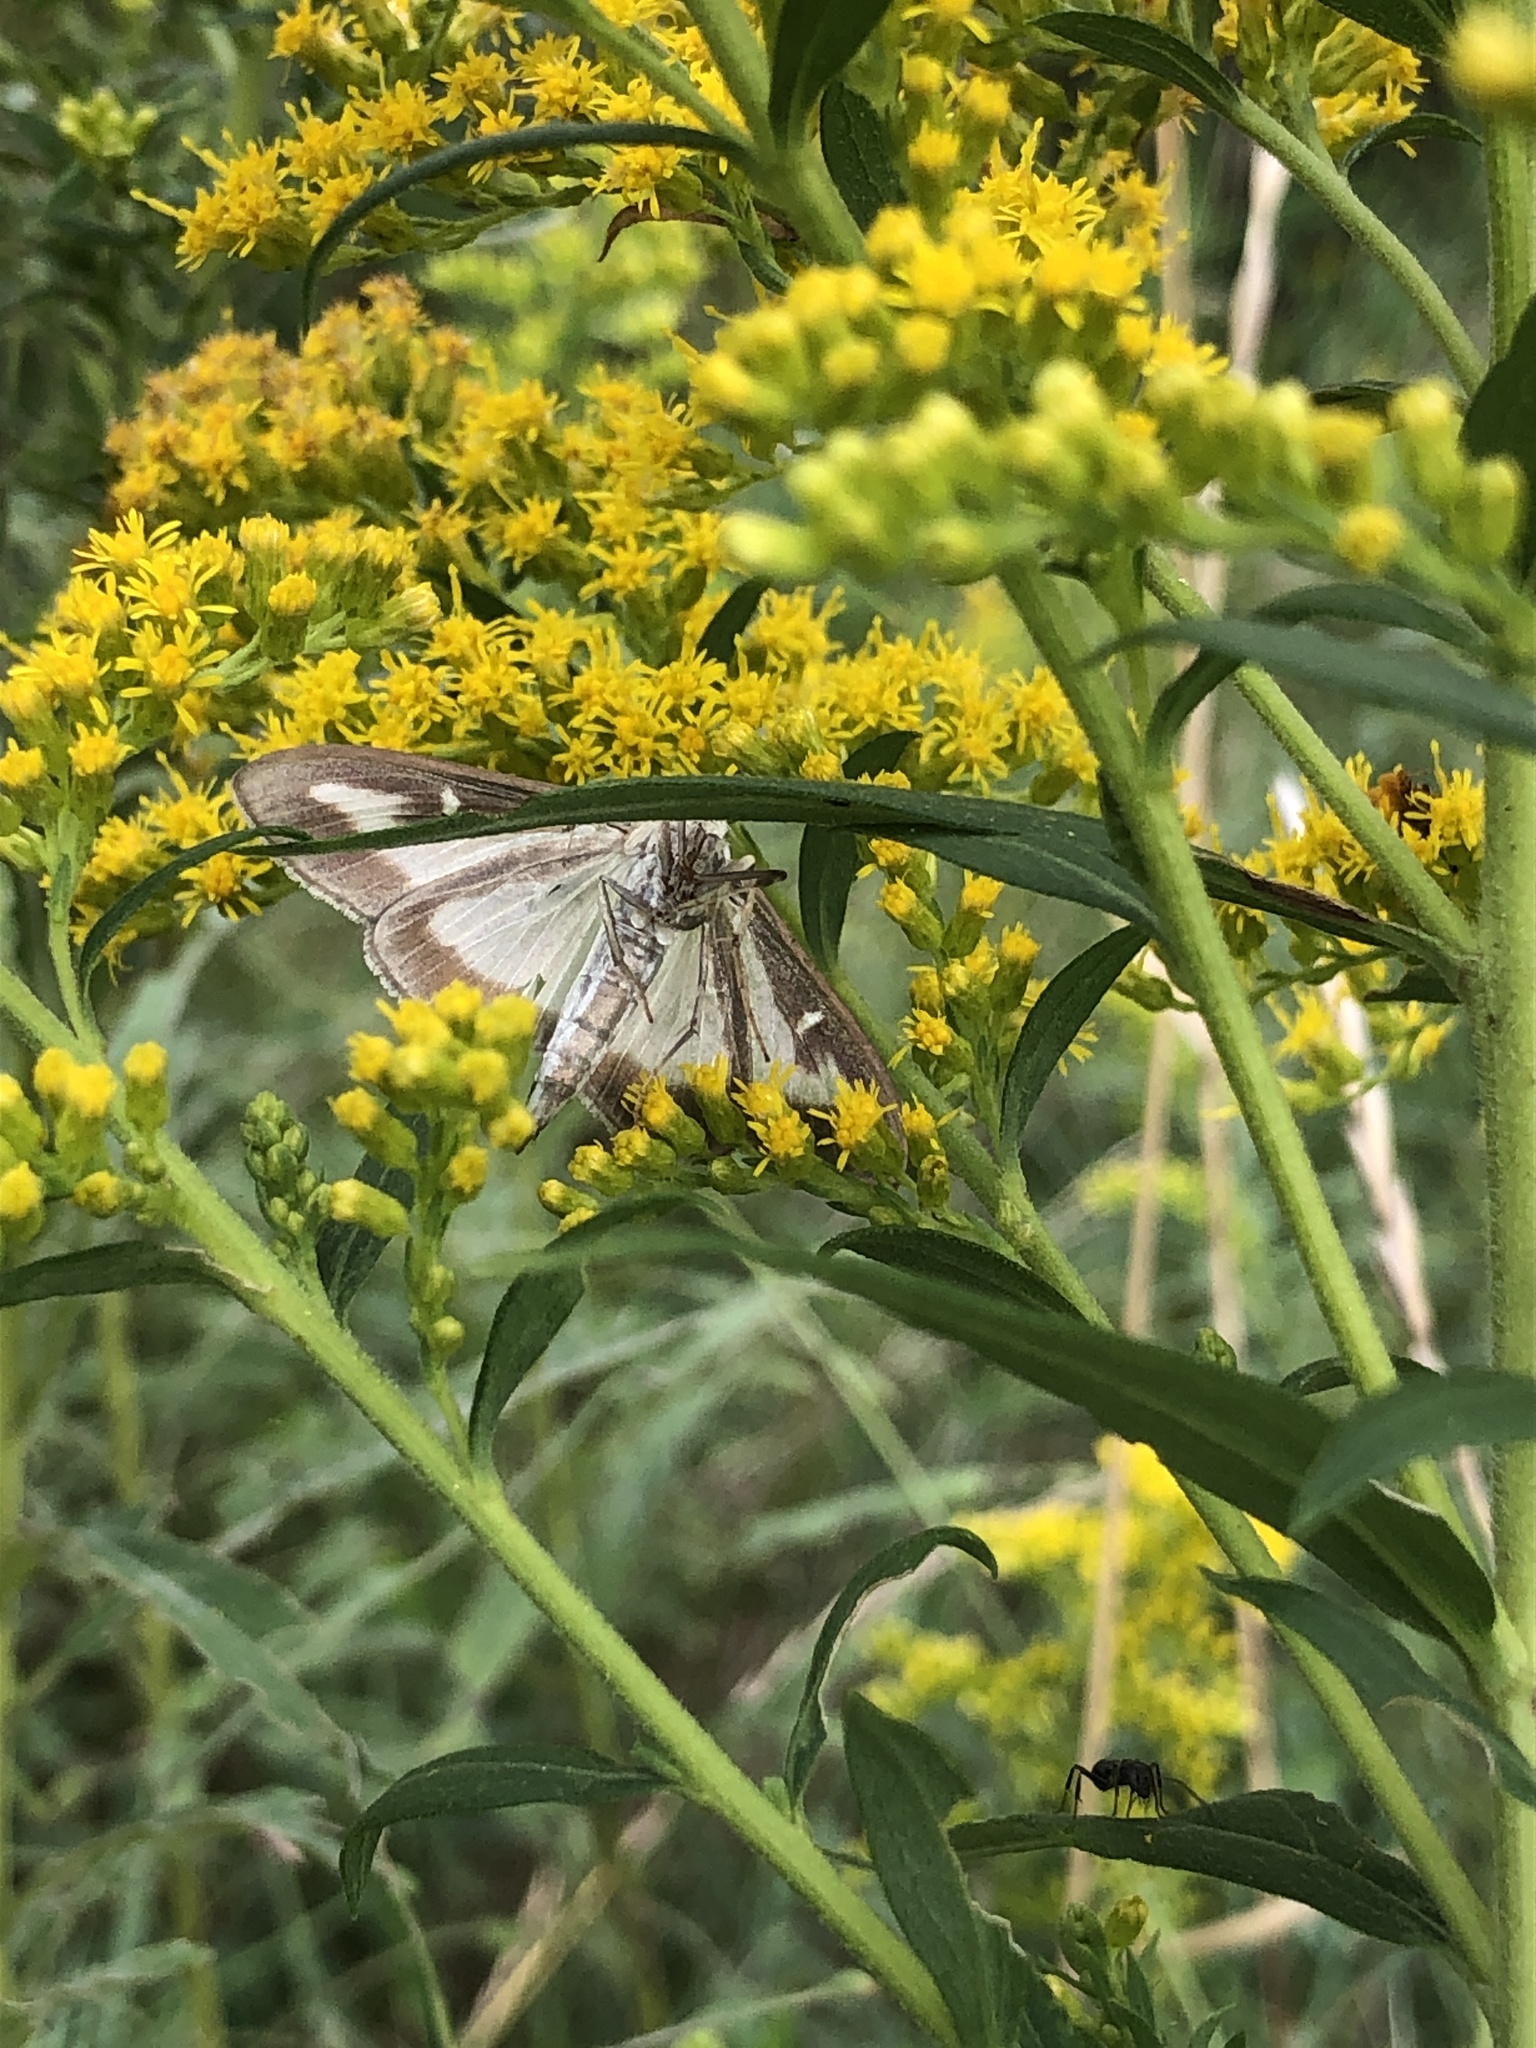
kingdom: Animalia
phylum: Arthropoda
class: Insecta
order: Lepidoptera
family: Crambidae
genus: Cydalima
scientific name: Cydalima perspectalis
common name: Box tree moth
